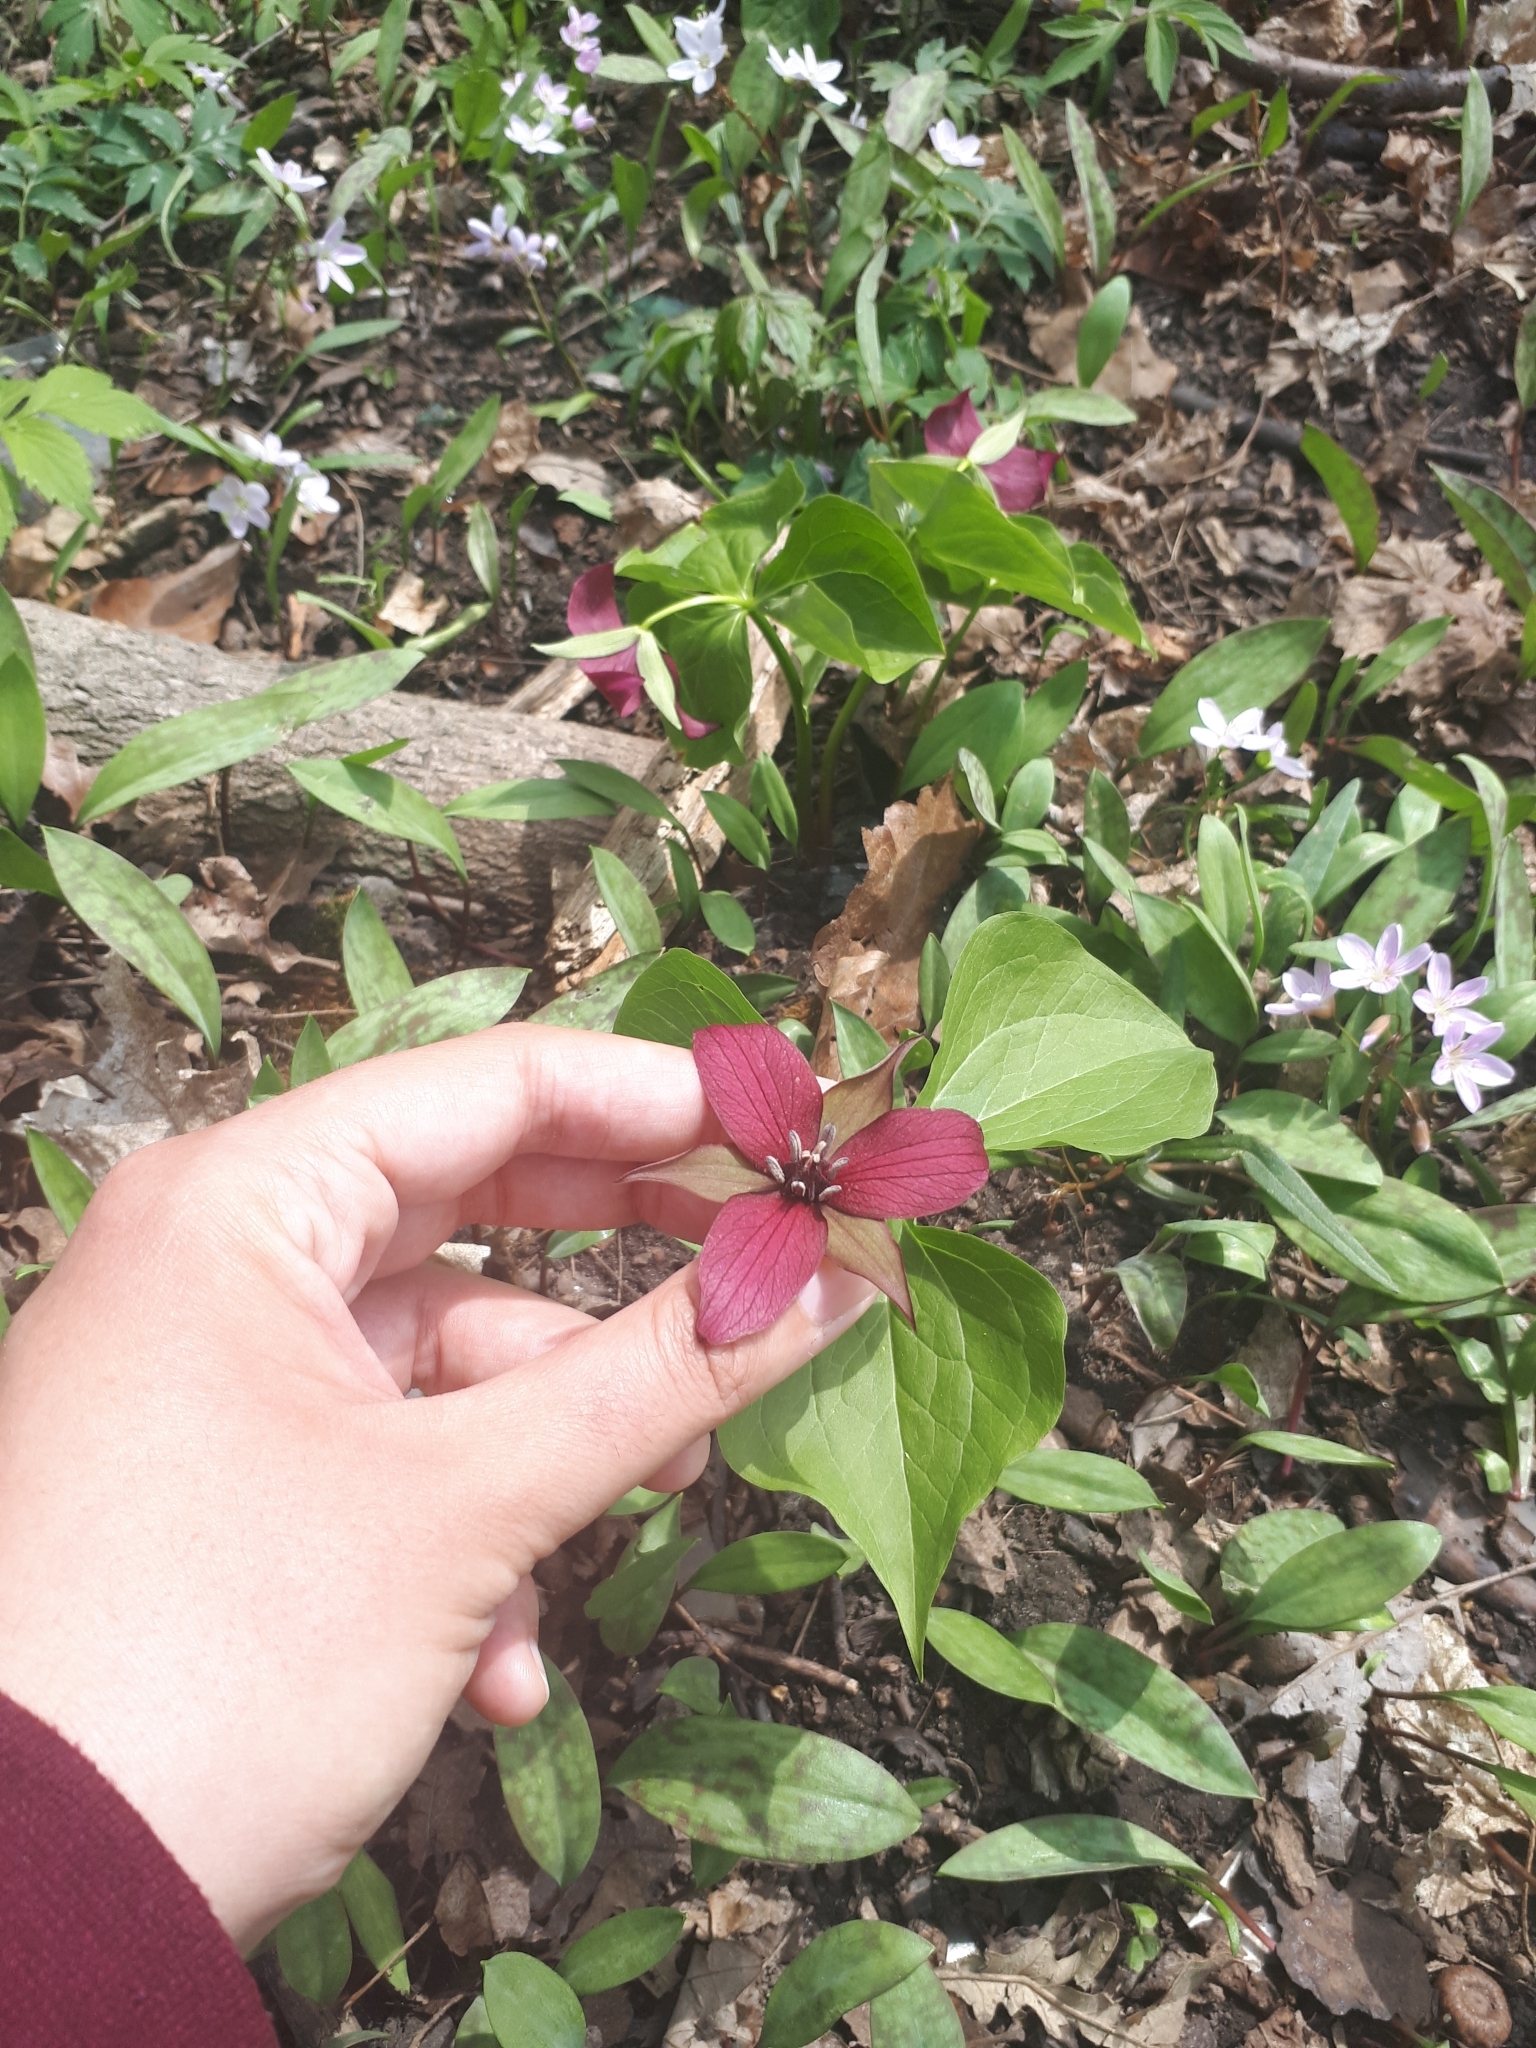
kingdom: Plantae
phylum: Tracheophyta
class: Liliopsida
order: Liliales
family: Melanthiaceae
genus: Trillium
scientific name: Trillium erectum
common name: Purple trillium
